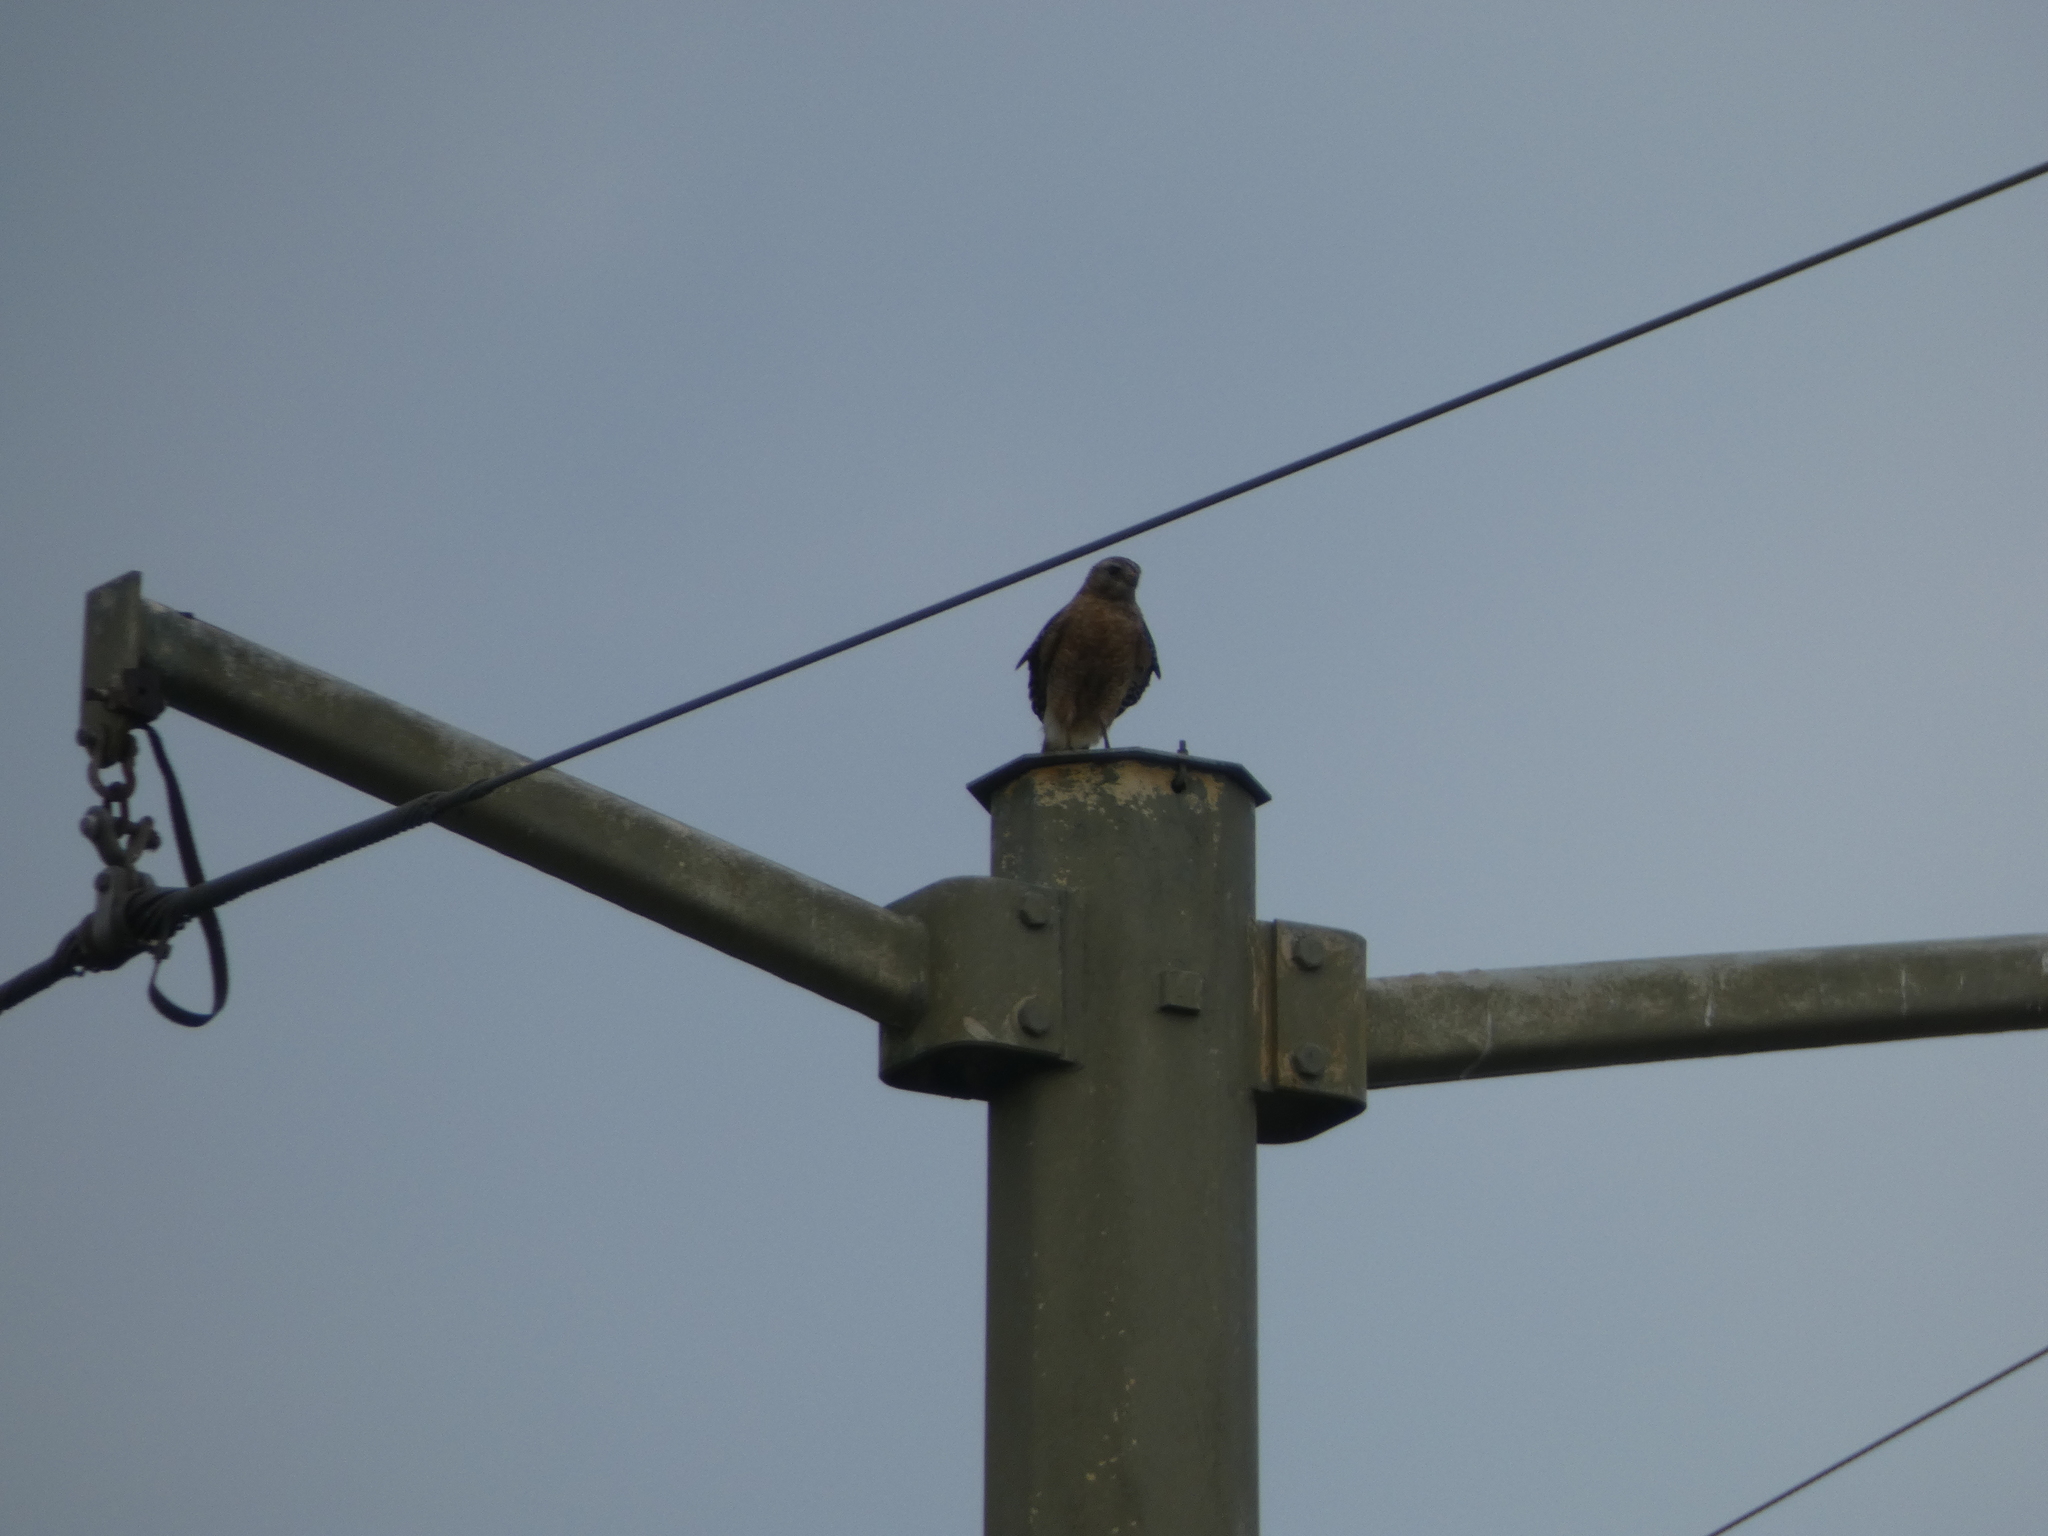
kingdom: Animalia
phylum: Chordata
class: Aves
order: Accipitriformes
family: Accipitridae
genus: Buteo
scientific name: Buteo lineatus
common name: Red-shouldered hawk
